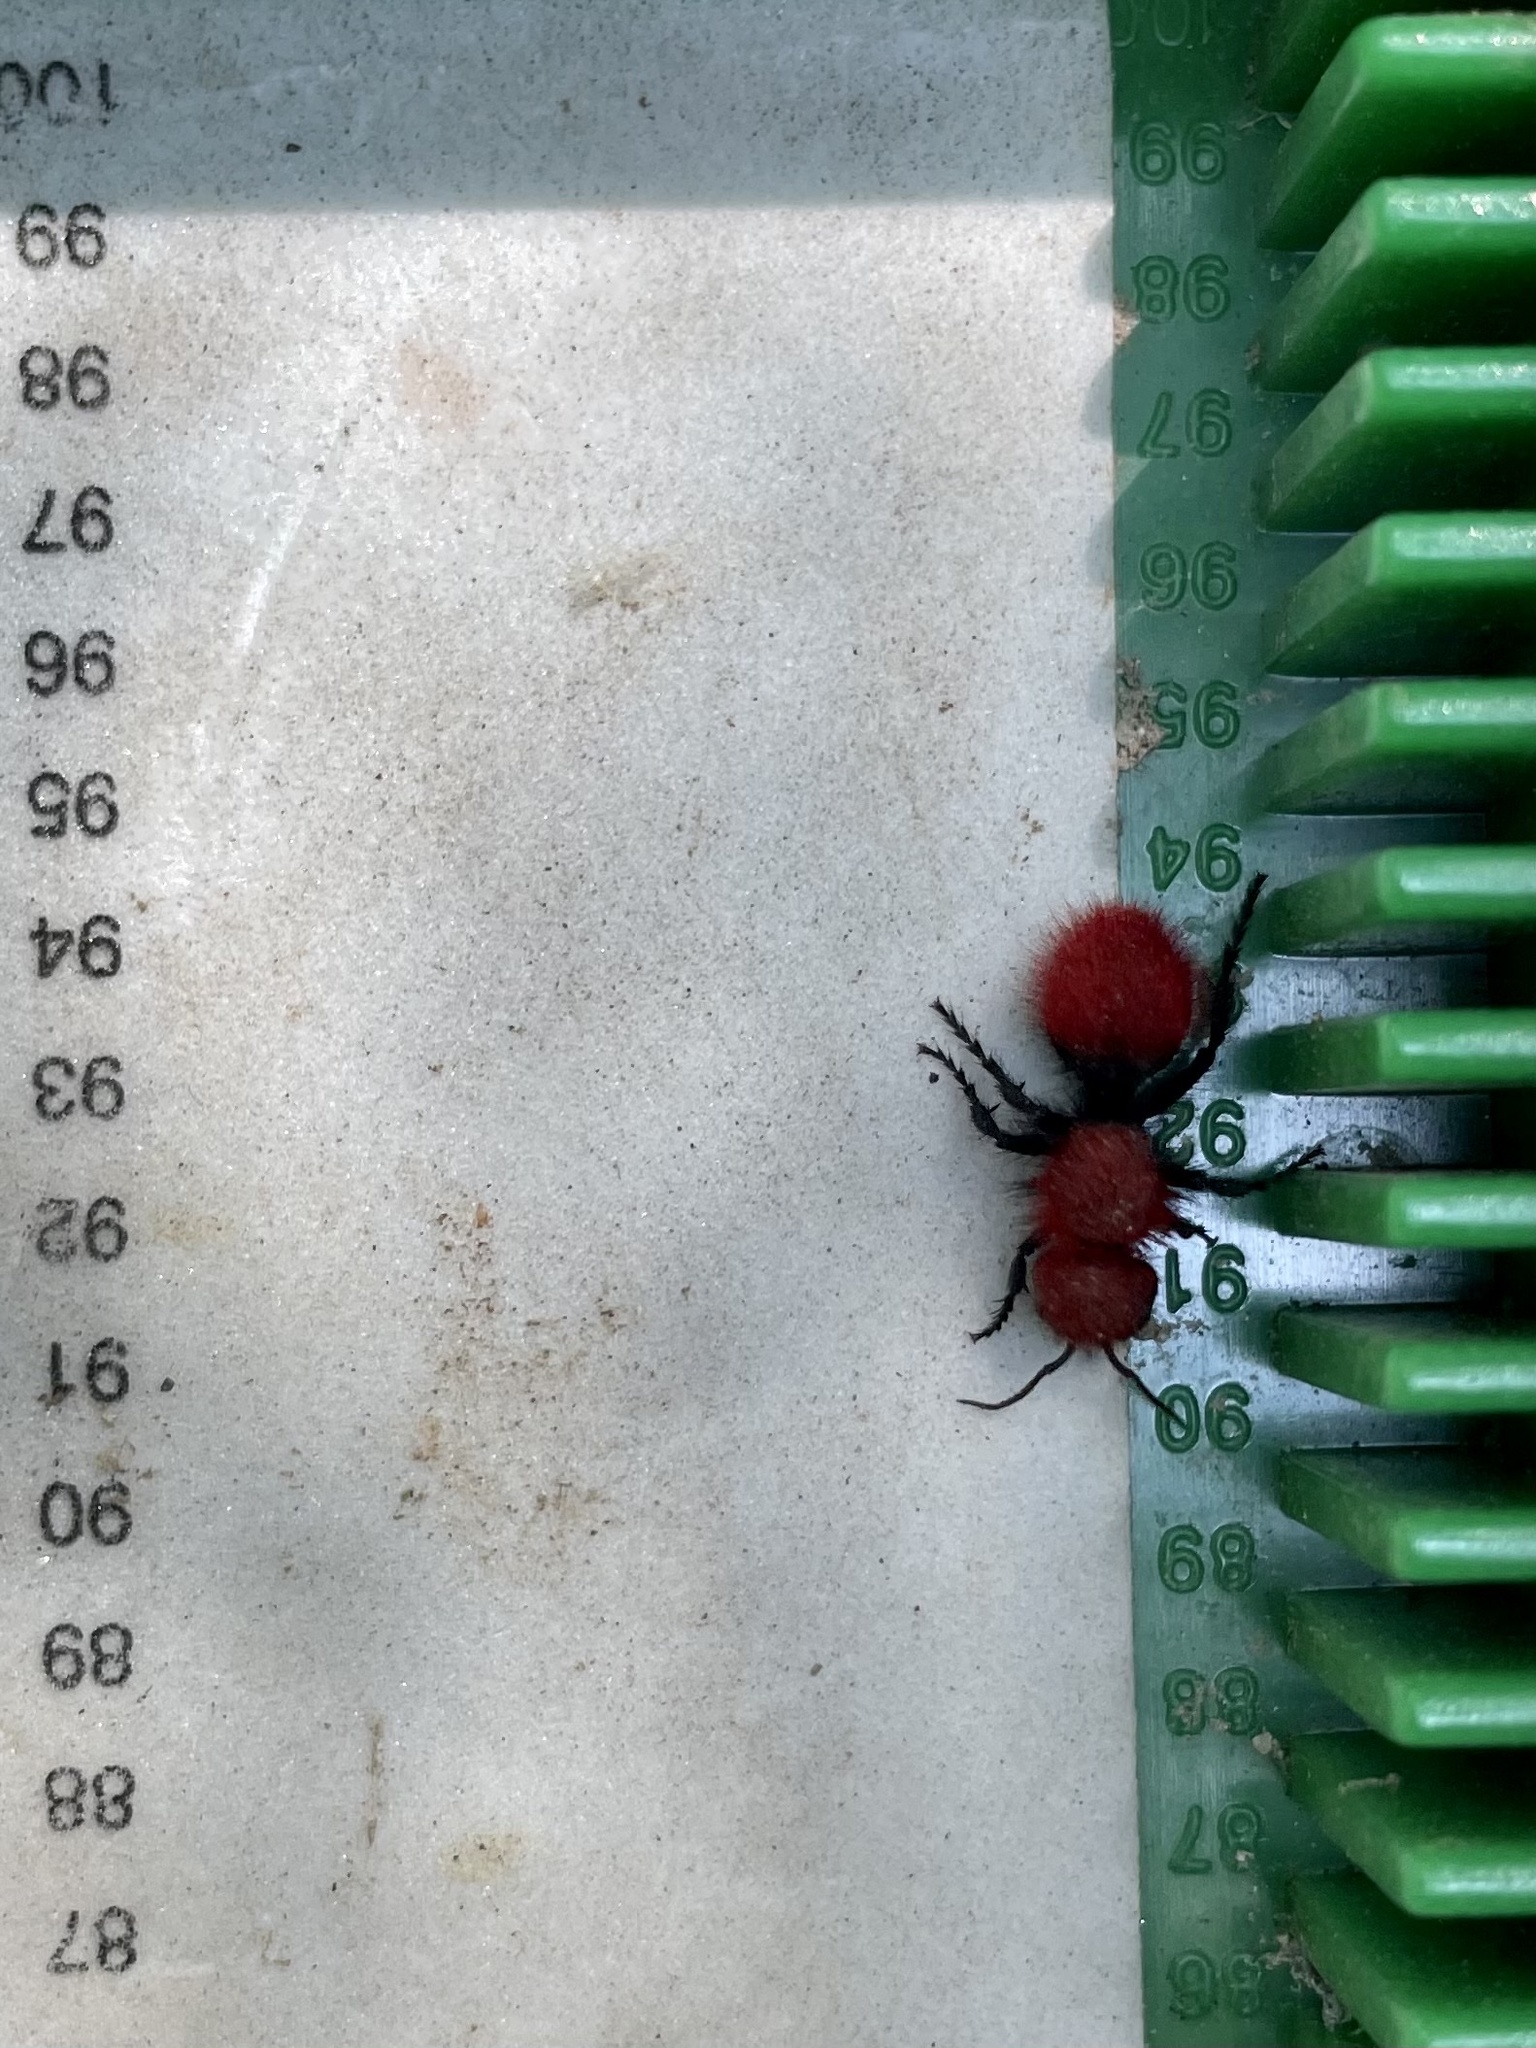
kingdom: Animalia
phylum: Arthropoda
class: Insecta
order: Hymenoptera
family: Mutillidae
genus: Dasymutilla
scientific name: Dasymutilla
